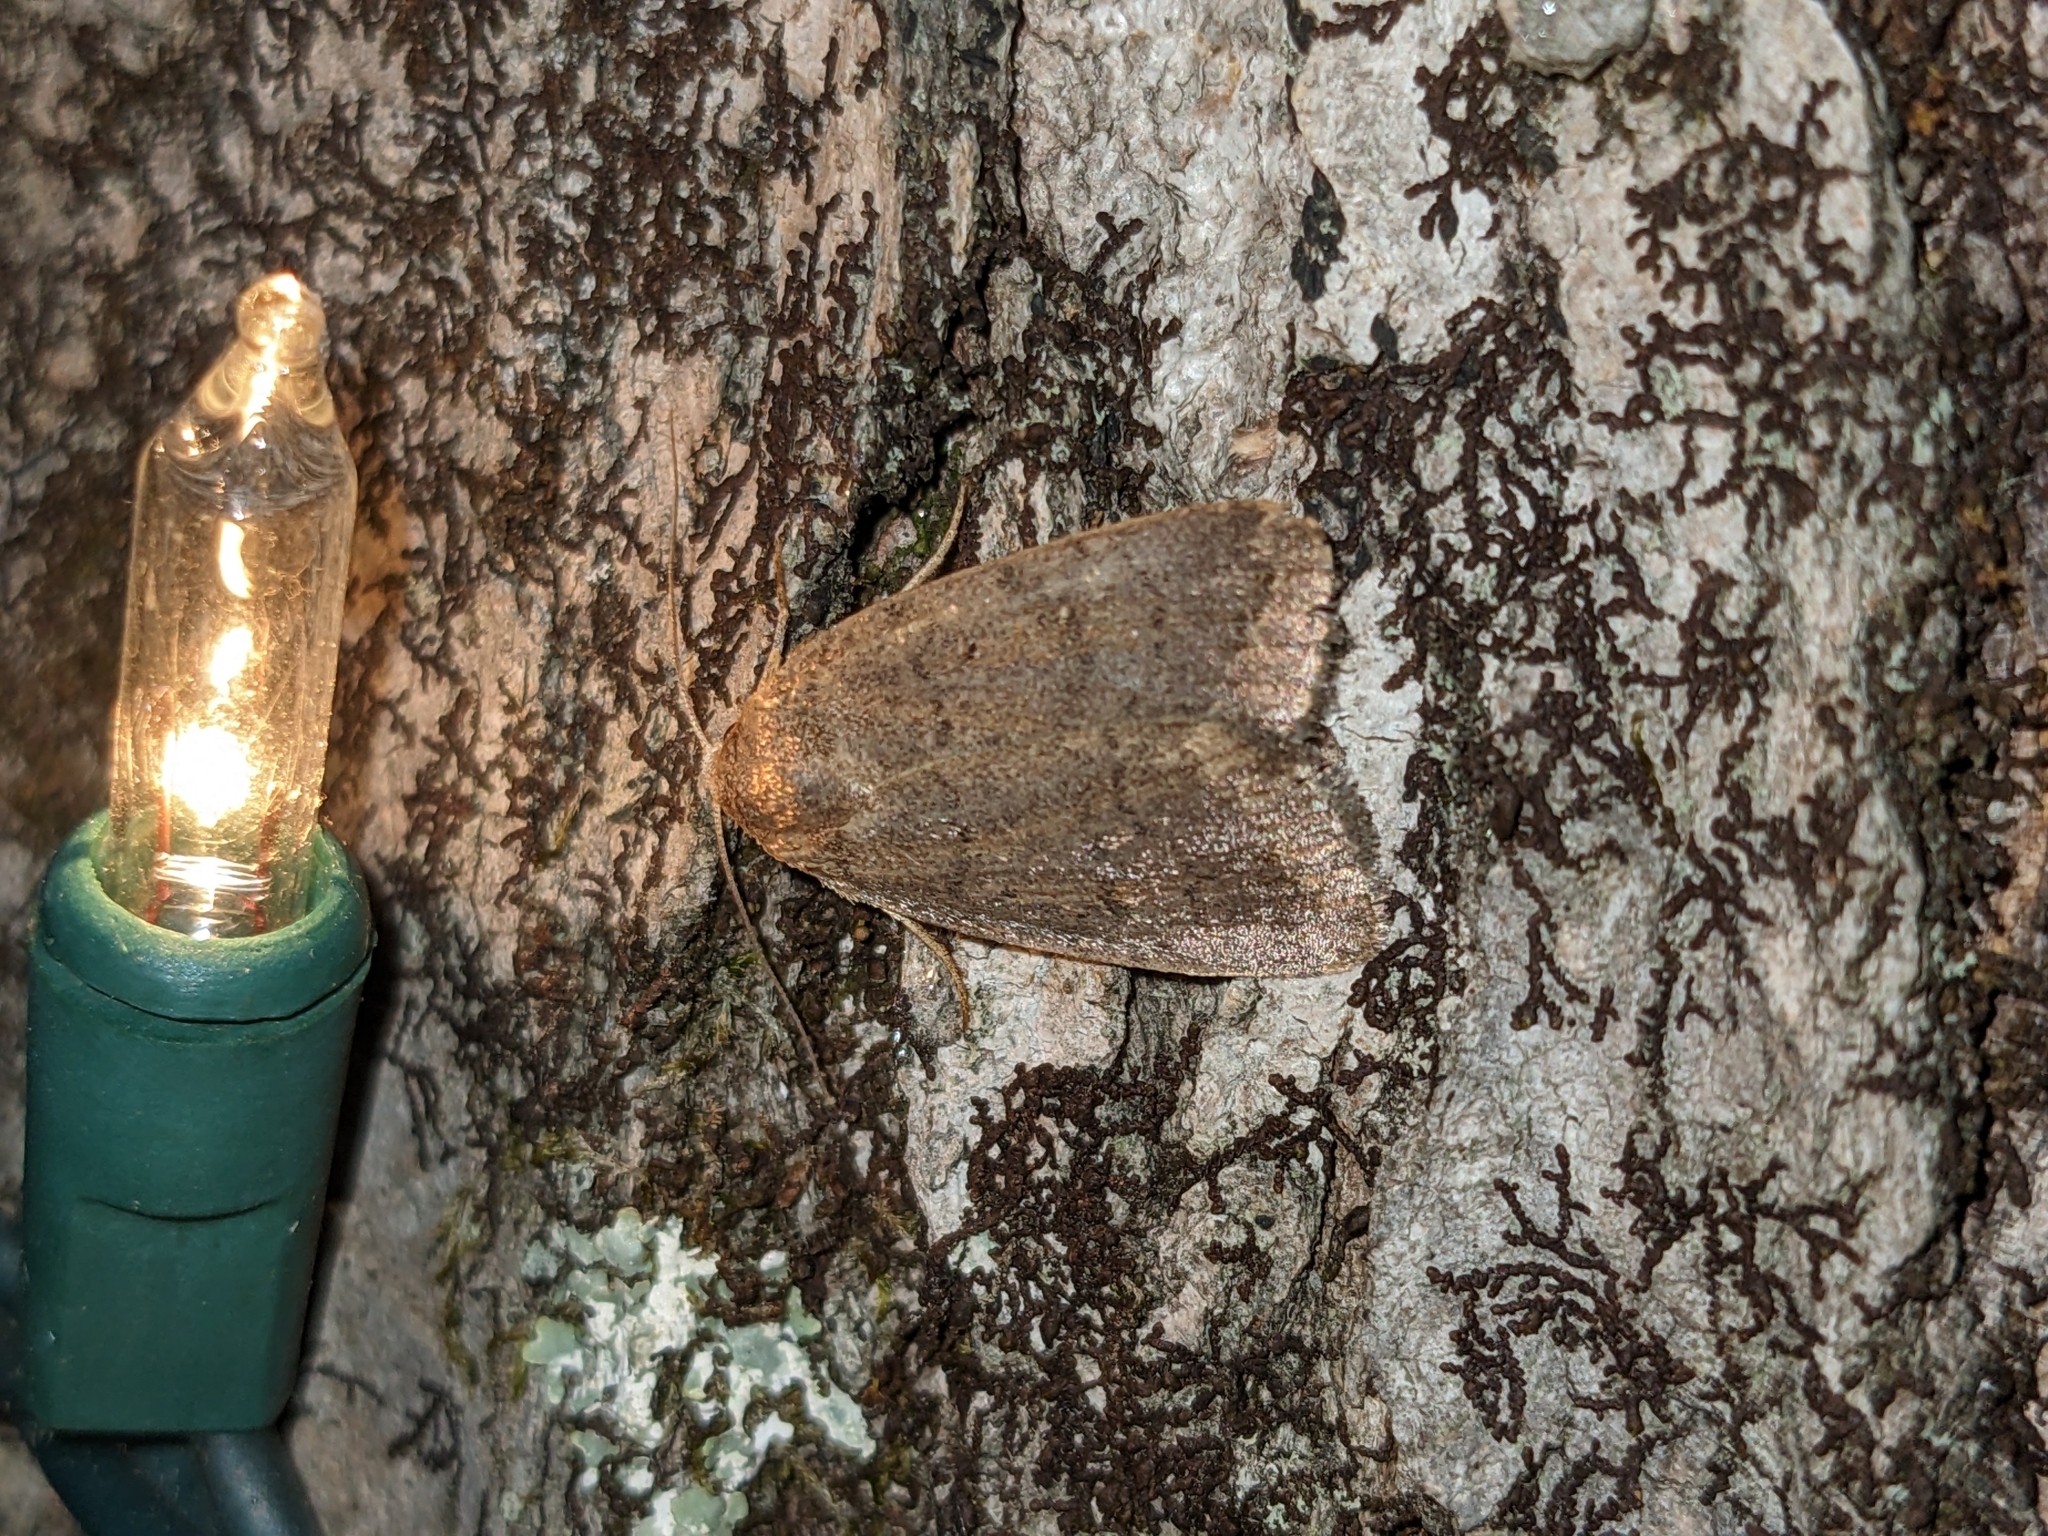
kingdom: Animalia
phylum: Arthropoda
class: Insecta
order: Lepidoptera
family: Noctuidae
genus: Athetis
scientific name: Athetis tarda
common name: Slowpoke moth
